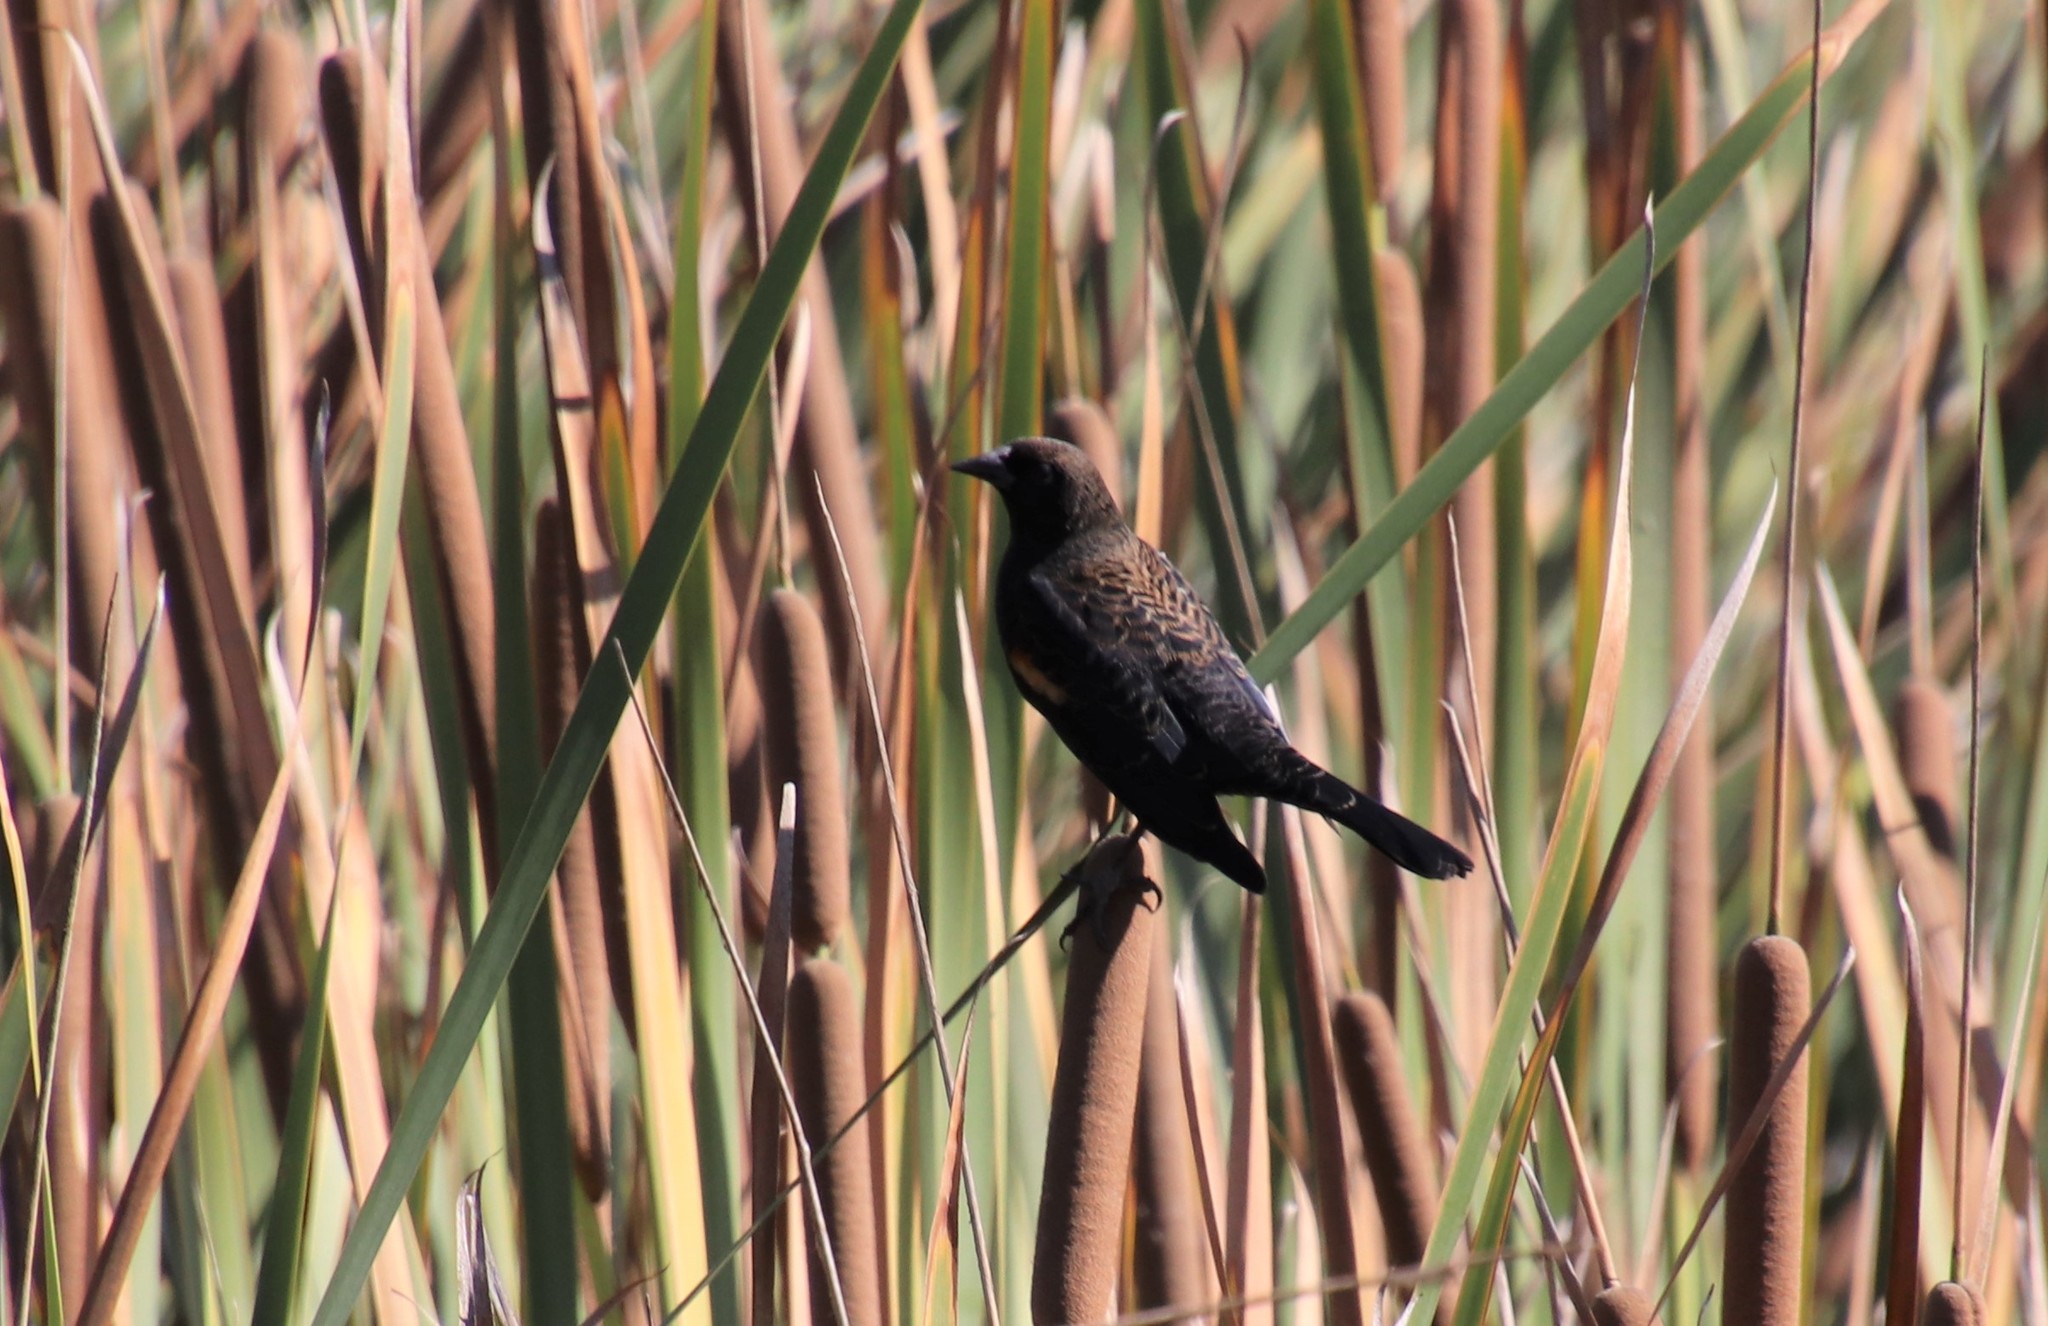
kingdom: Animalia
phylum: Chordata
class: Aves
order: Passeriformes
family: Icteridae
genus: Agelaius
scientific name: Agelaius phoeniceus
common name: Red-winged blackbird
